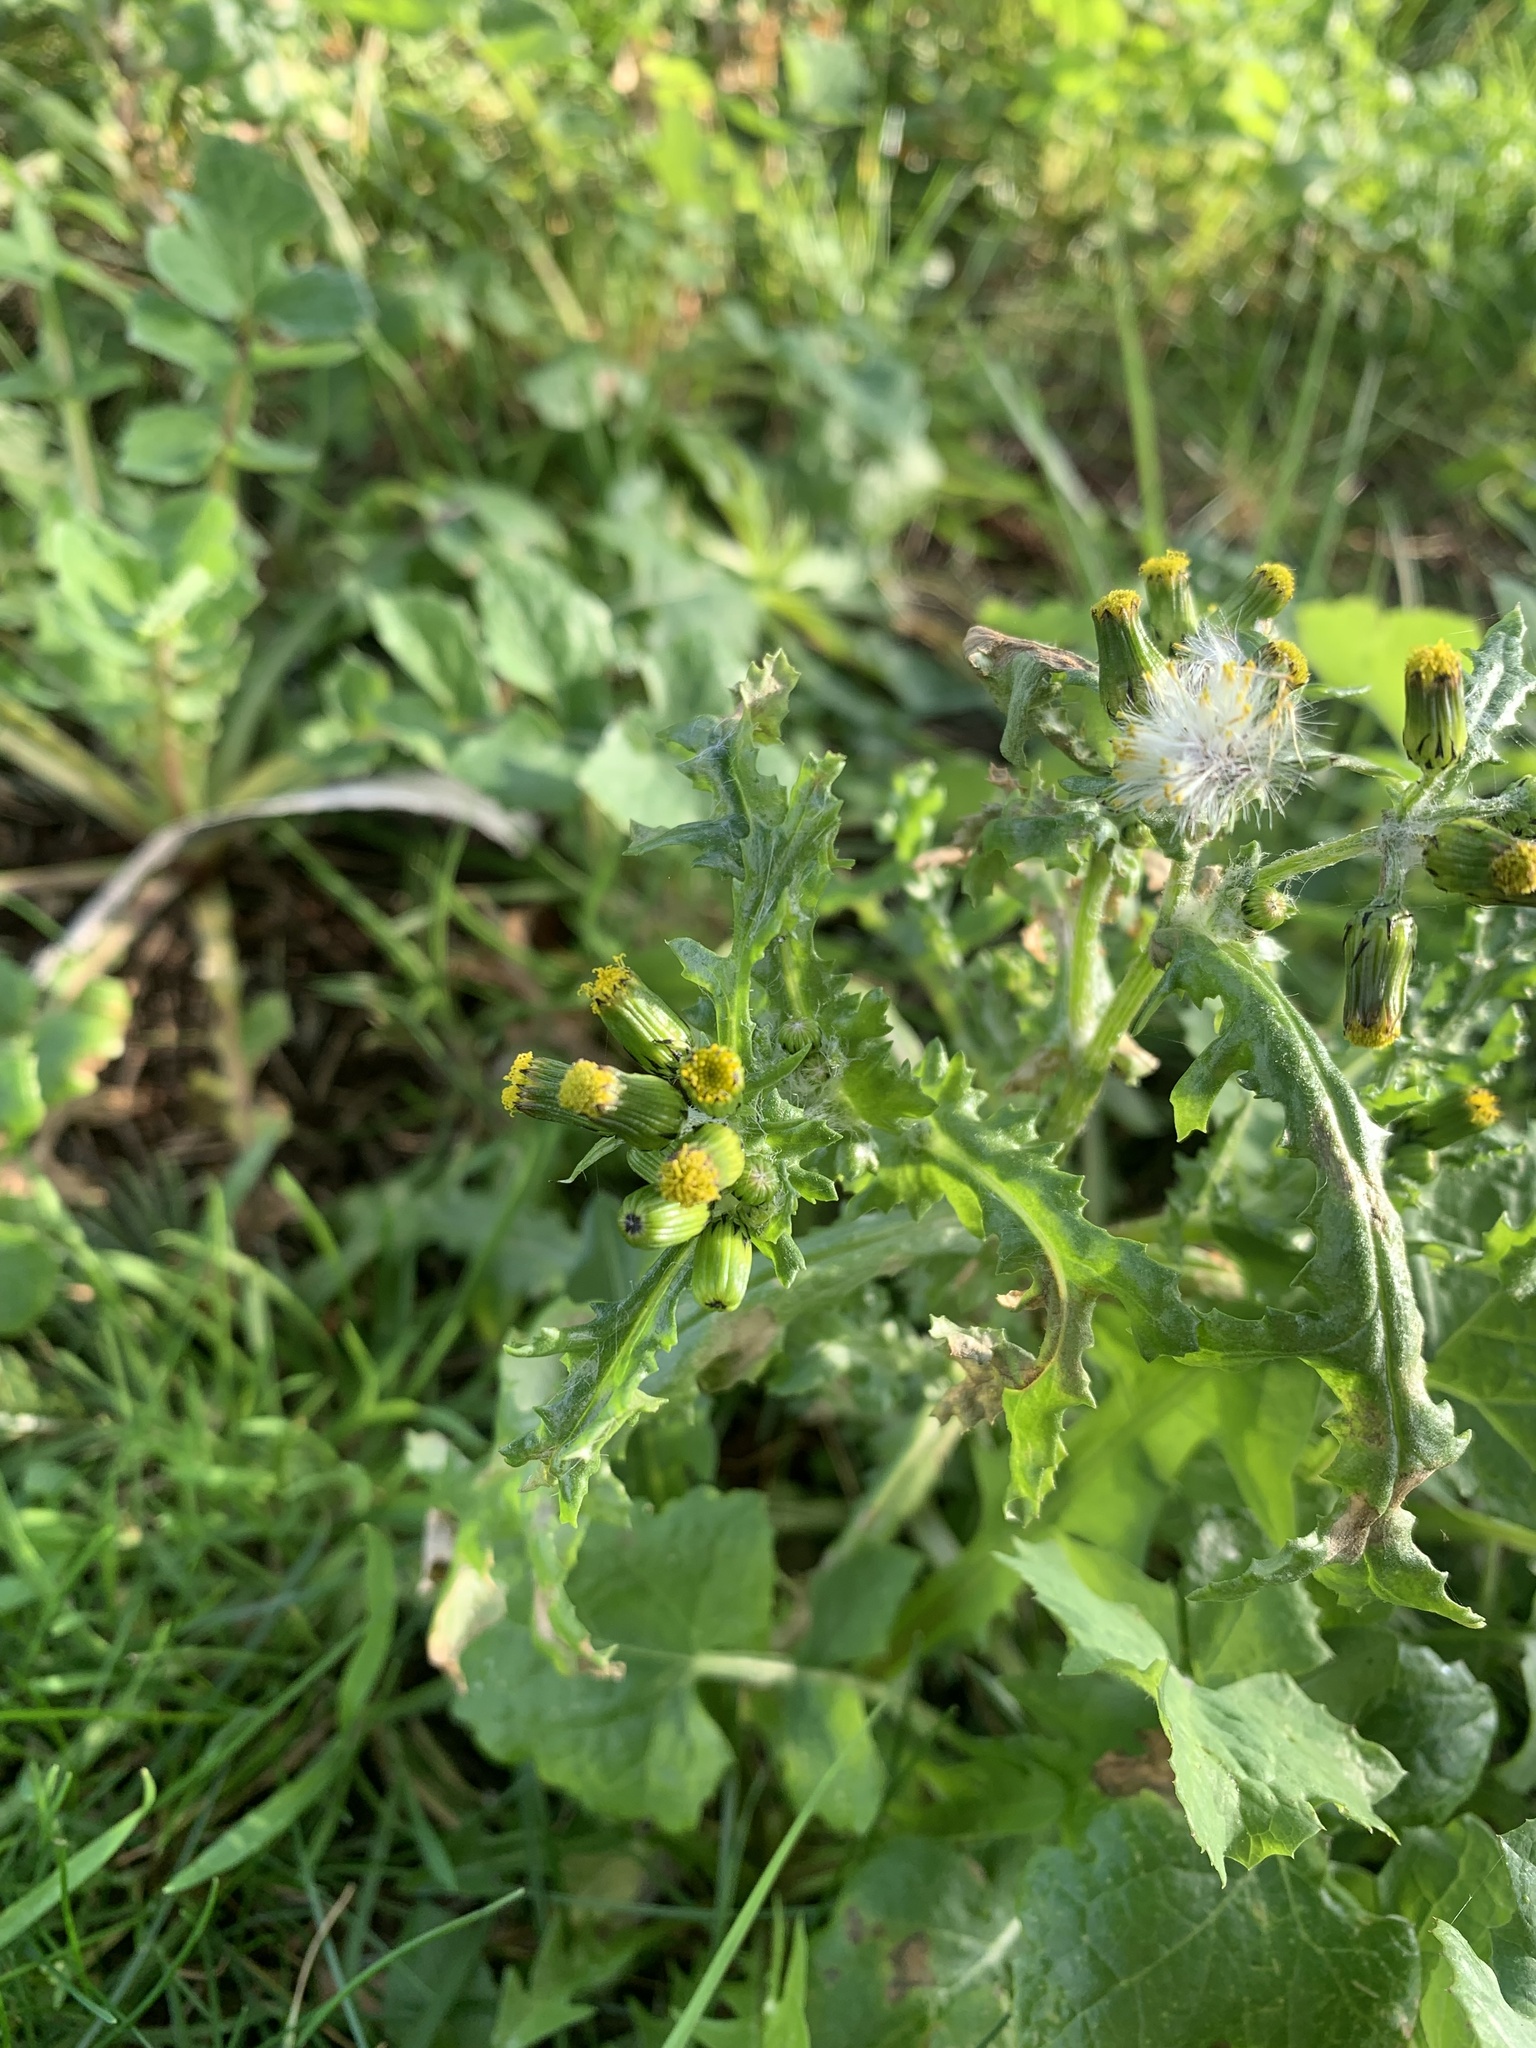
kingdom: Plantae
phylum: Tracheophyta
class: Magnoliopsida
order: Asterales
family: Asteraceae
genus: Senecio
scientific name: Senecio vulgaris
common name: Old-man-in-the-spring
